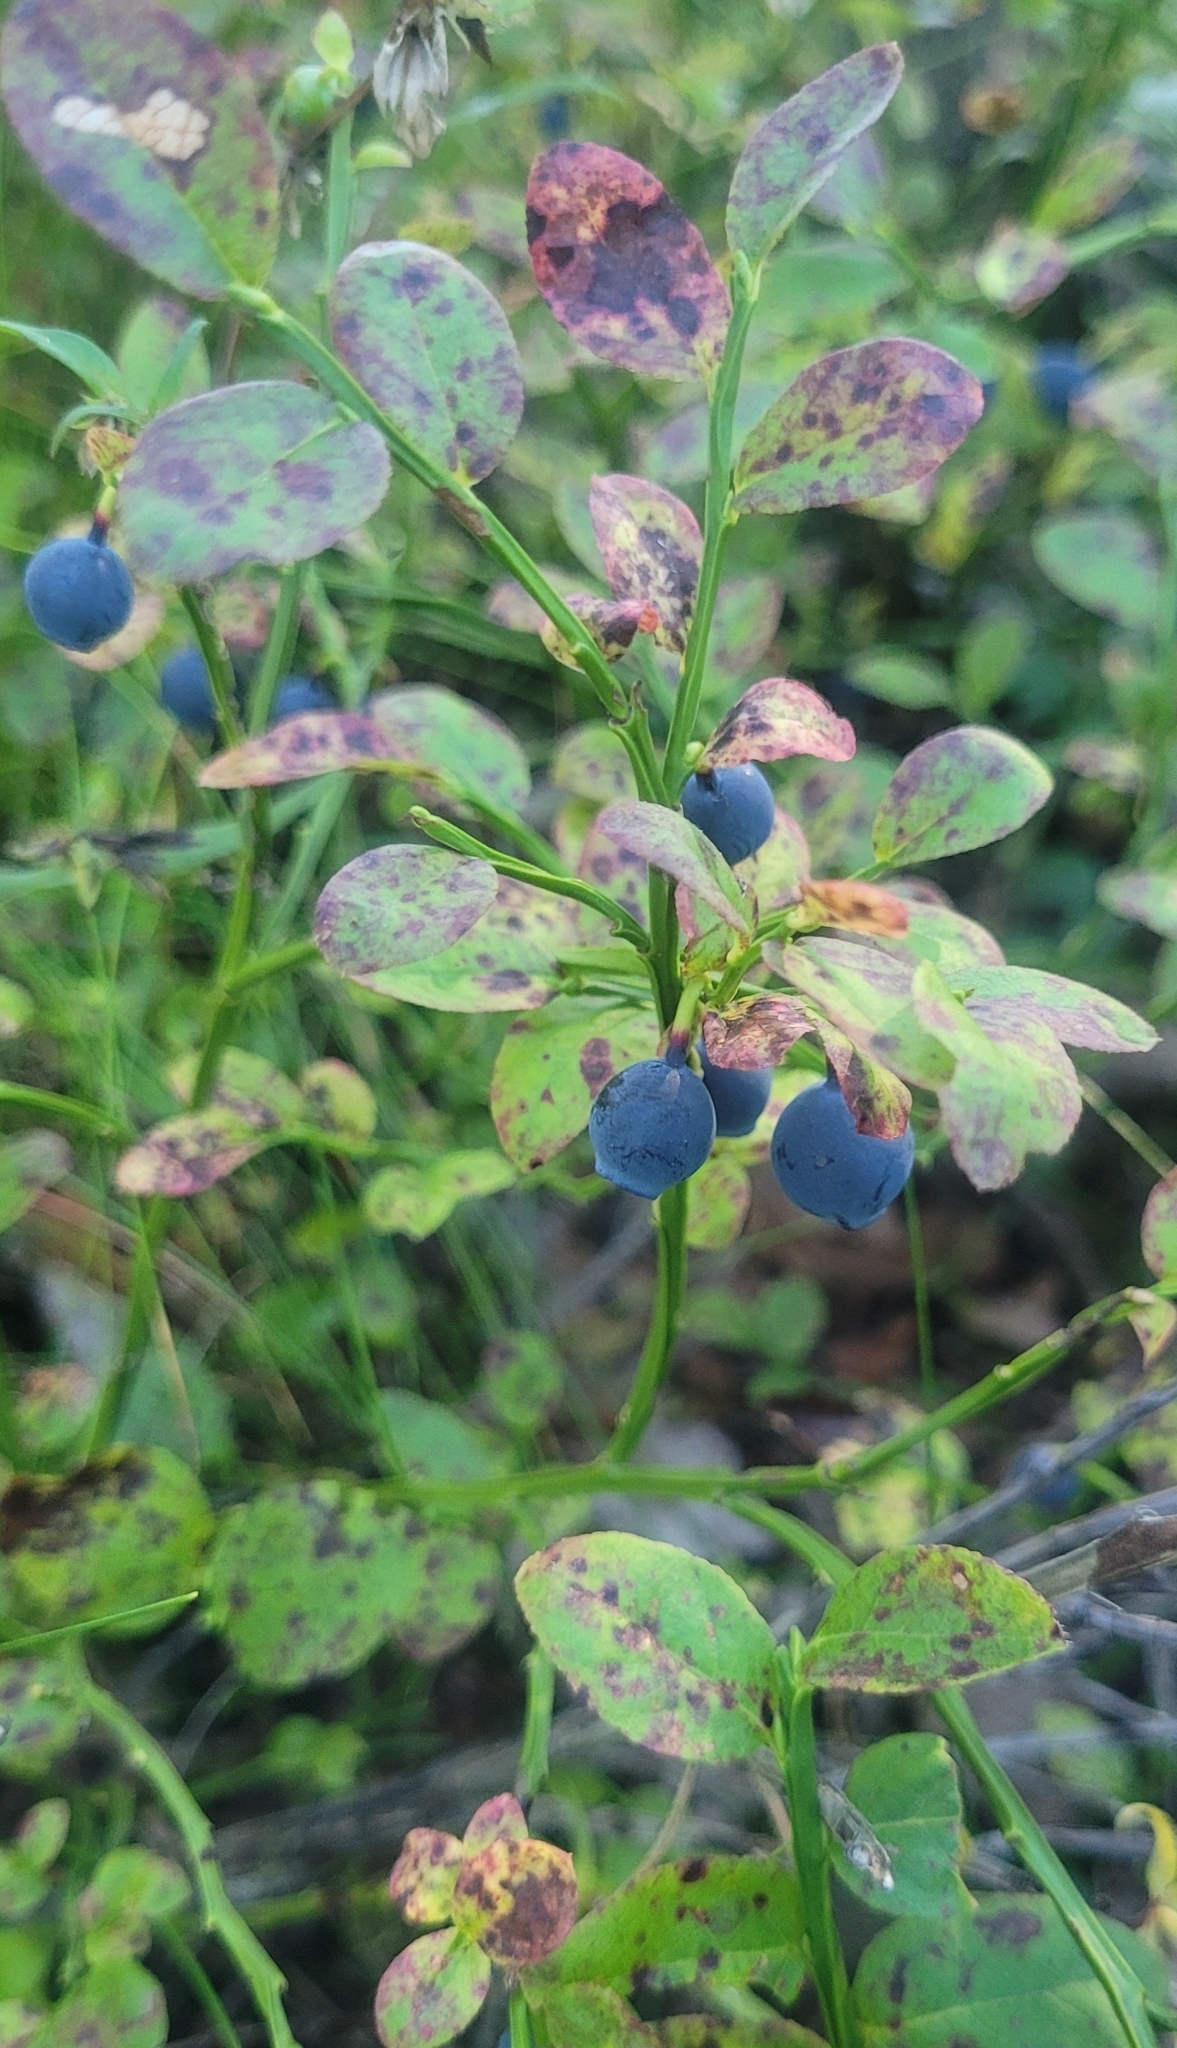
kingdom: Plantae
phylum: Tracheophyta
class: Magnoliopsida
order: Ericales
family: Ericaceae
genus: Vaccinium
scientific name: Vaccinium myrtillus
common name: Bilberry
